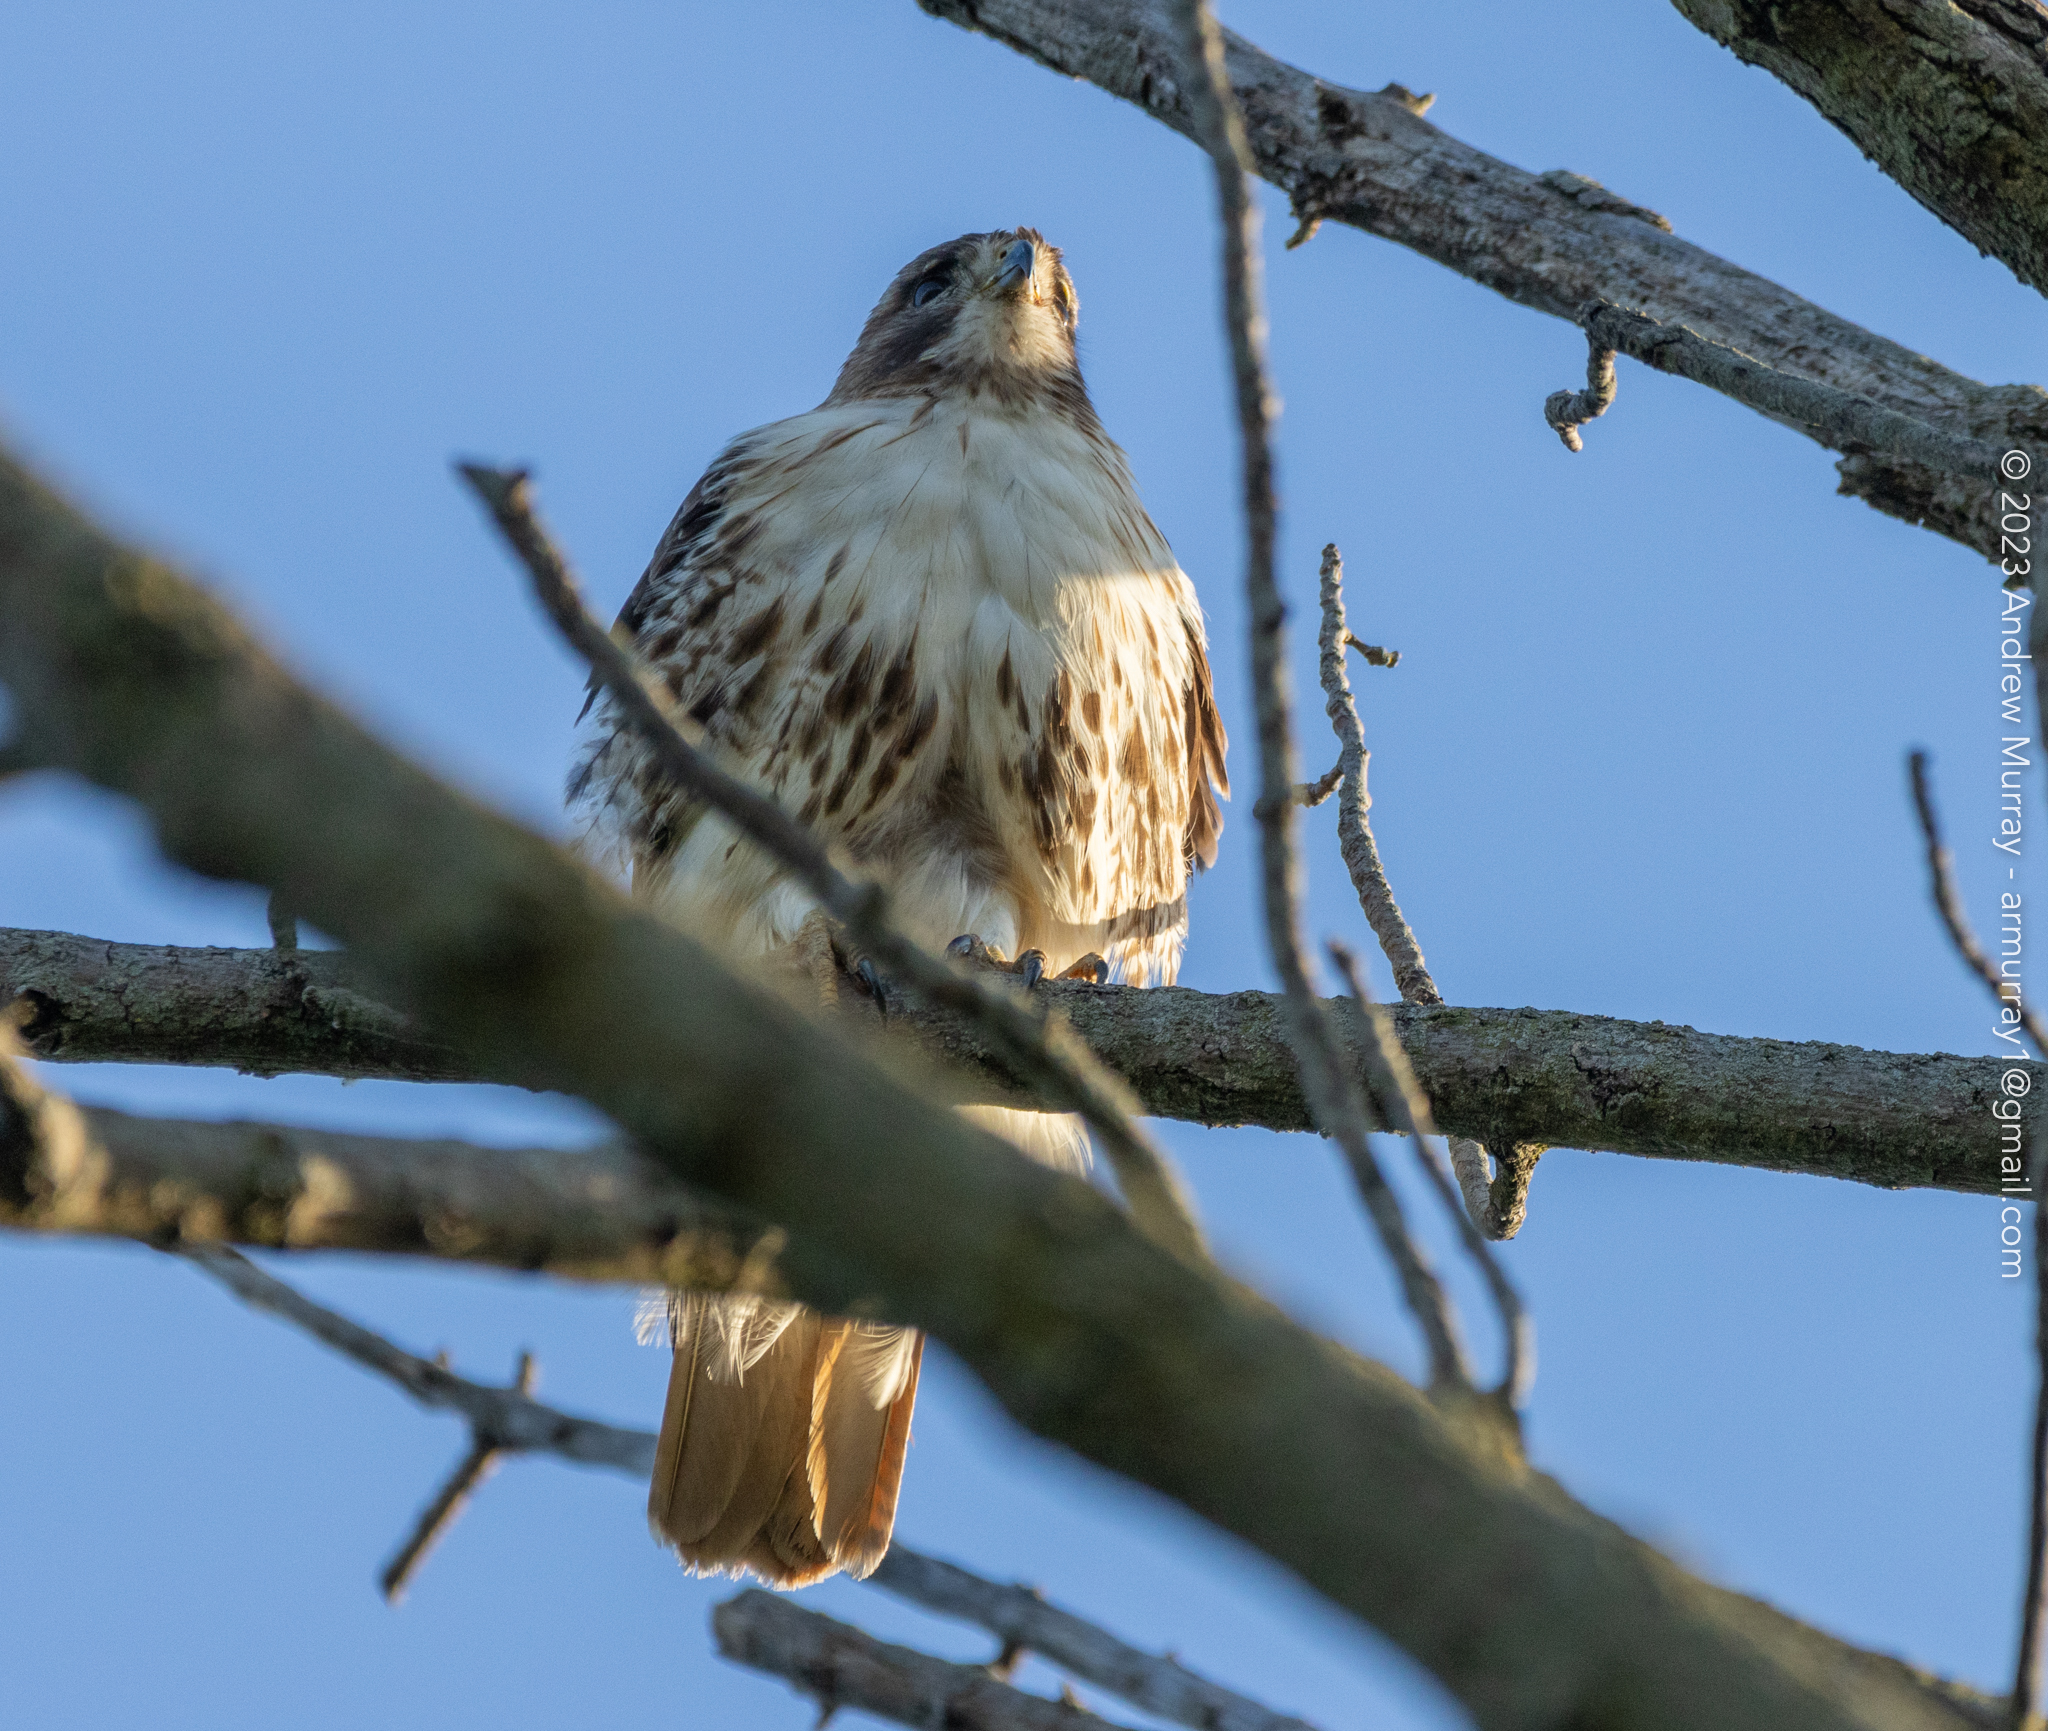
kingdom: Animalia
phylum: Chordata
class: Aves
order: Accipitriformes
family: Accipitridae
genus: Buteo
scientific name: Buteo jamaicensis
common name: Red-tailed hawk
